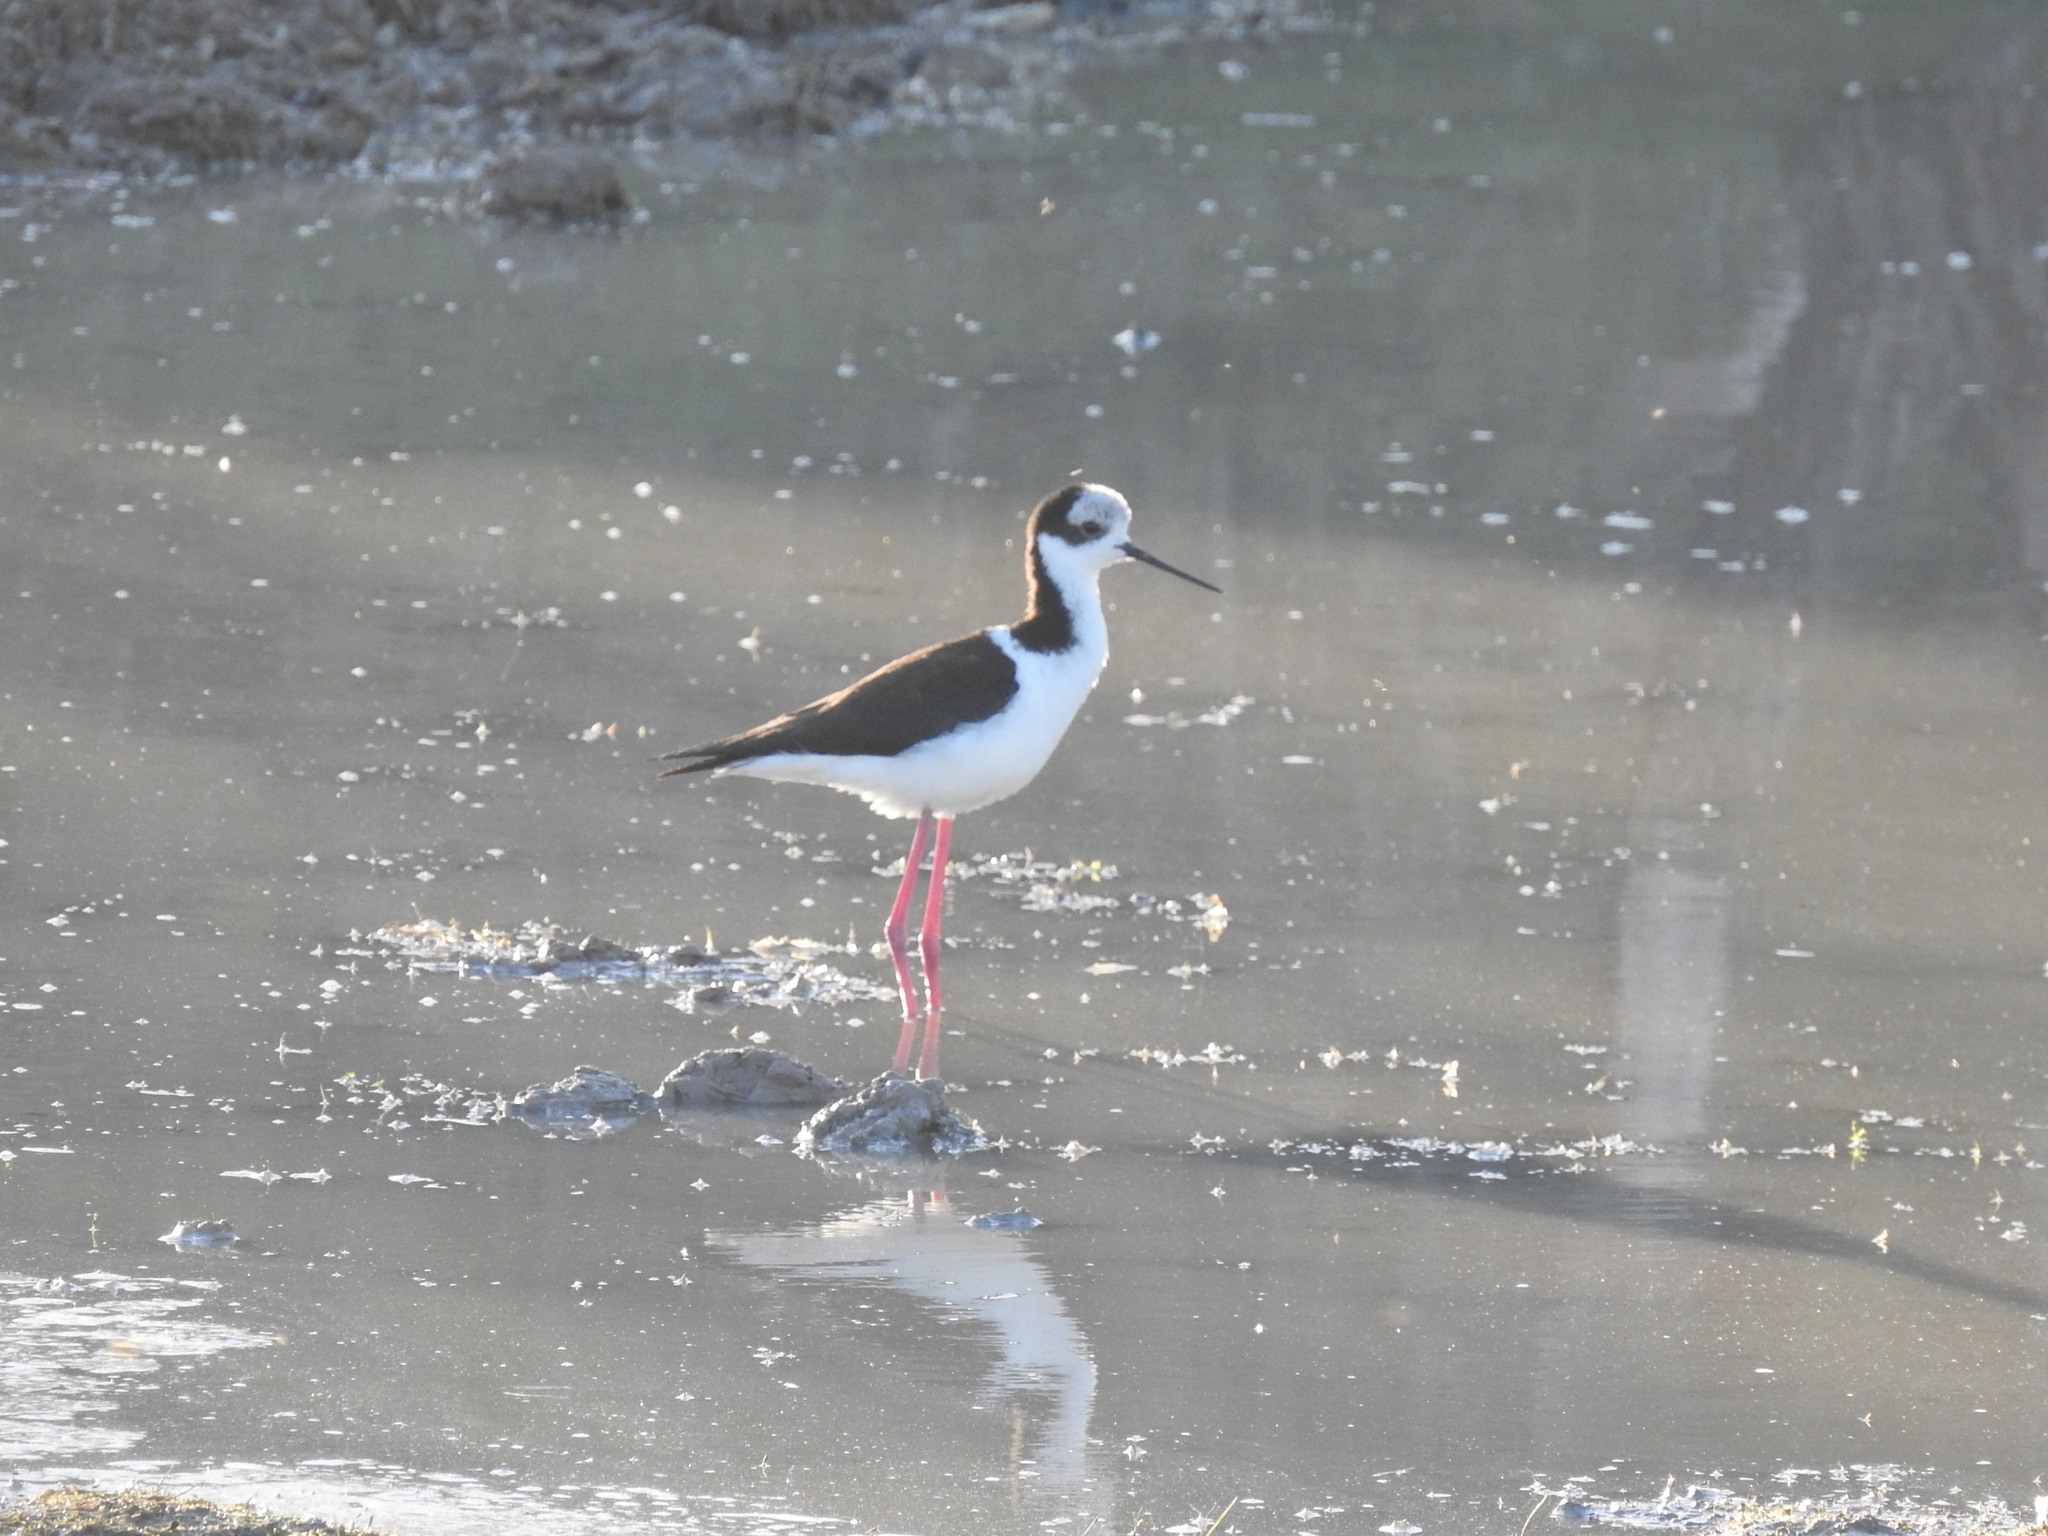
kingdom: Animalia
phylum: Chordata
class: Aves
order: Charadriiformes
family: Recurvirostridae
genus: Himantopus
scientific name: Himantopus mexicanus
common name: Black-necked stilt
